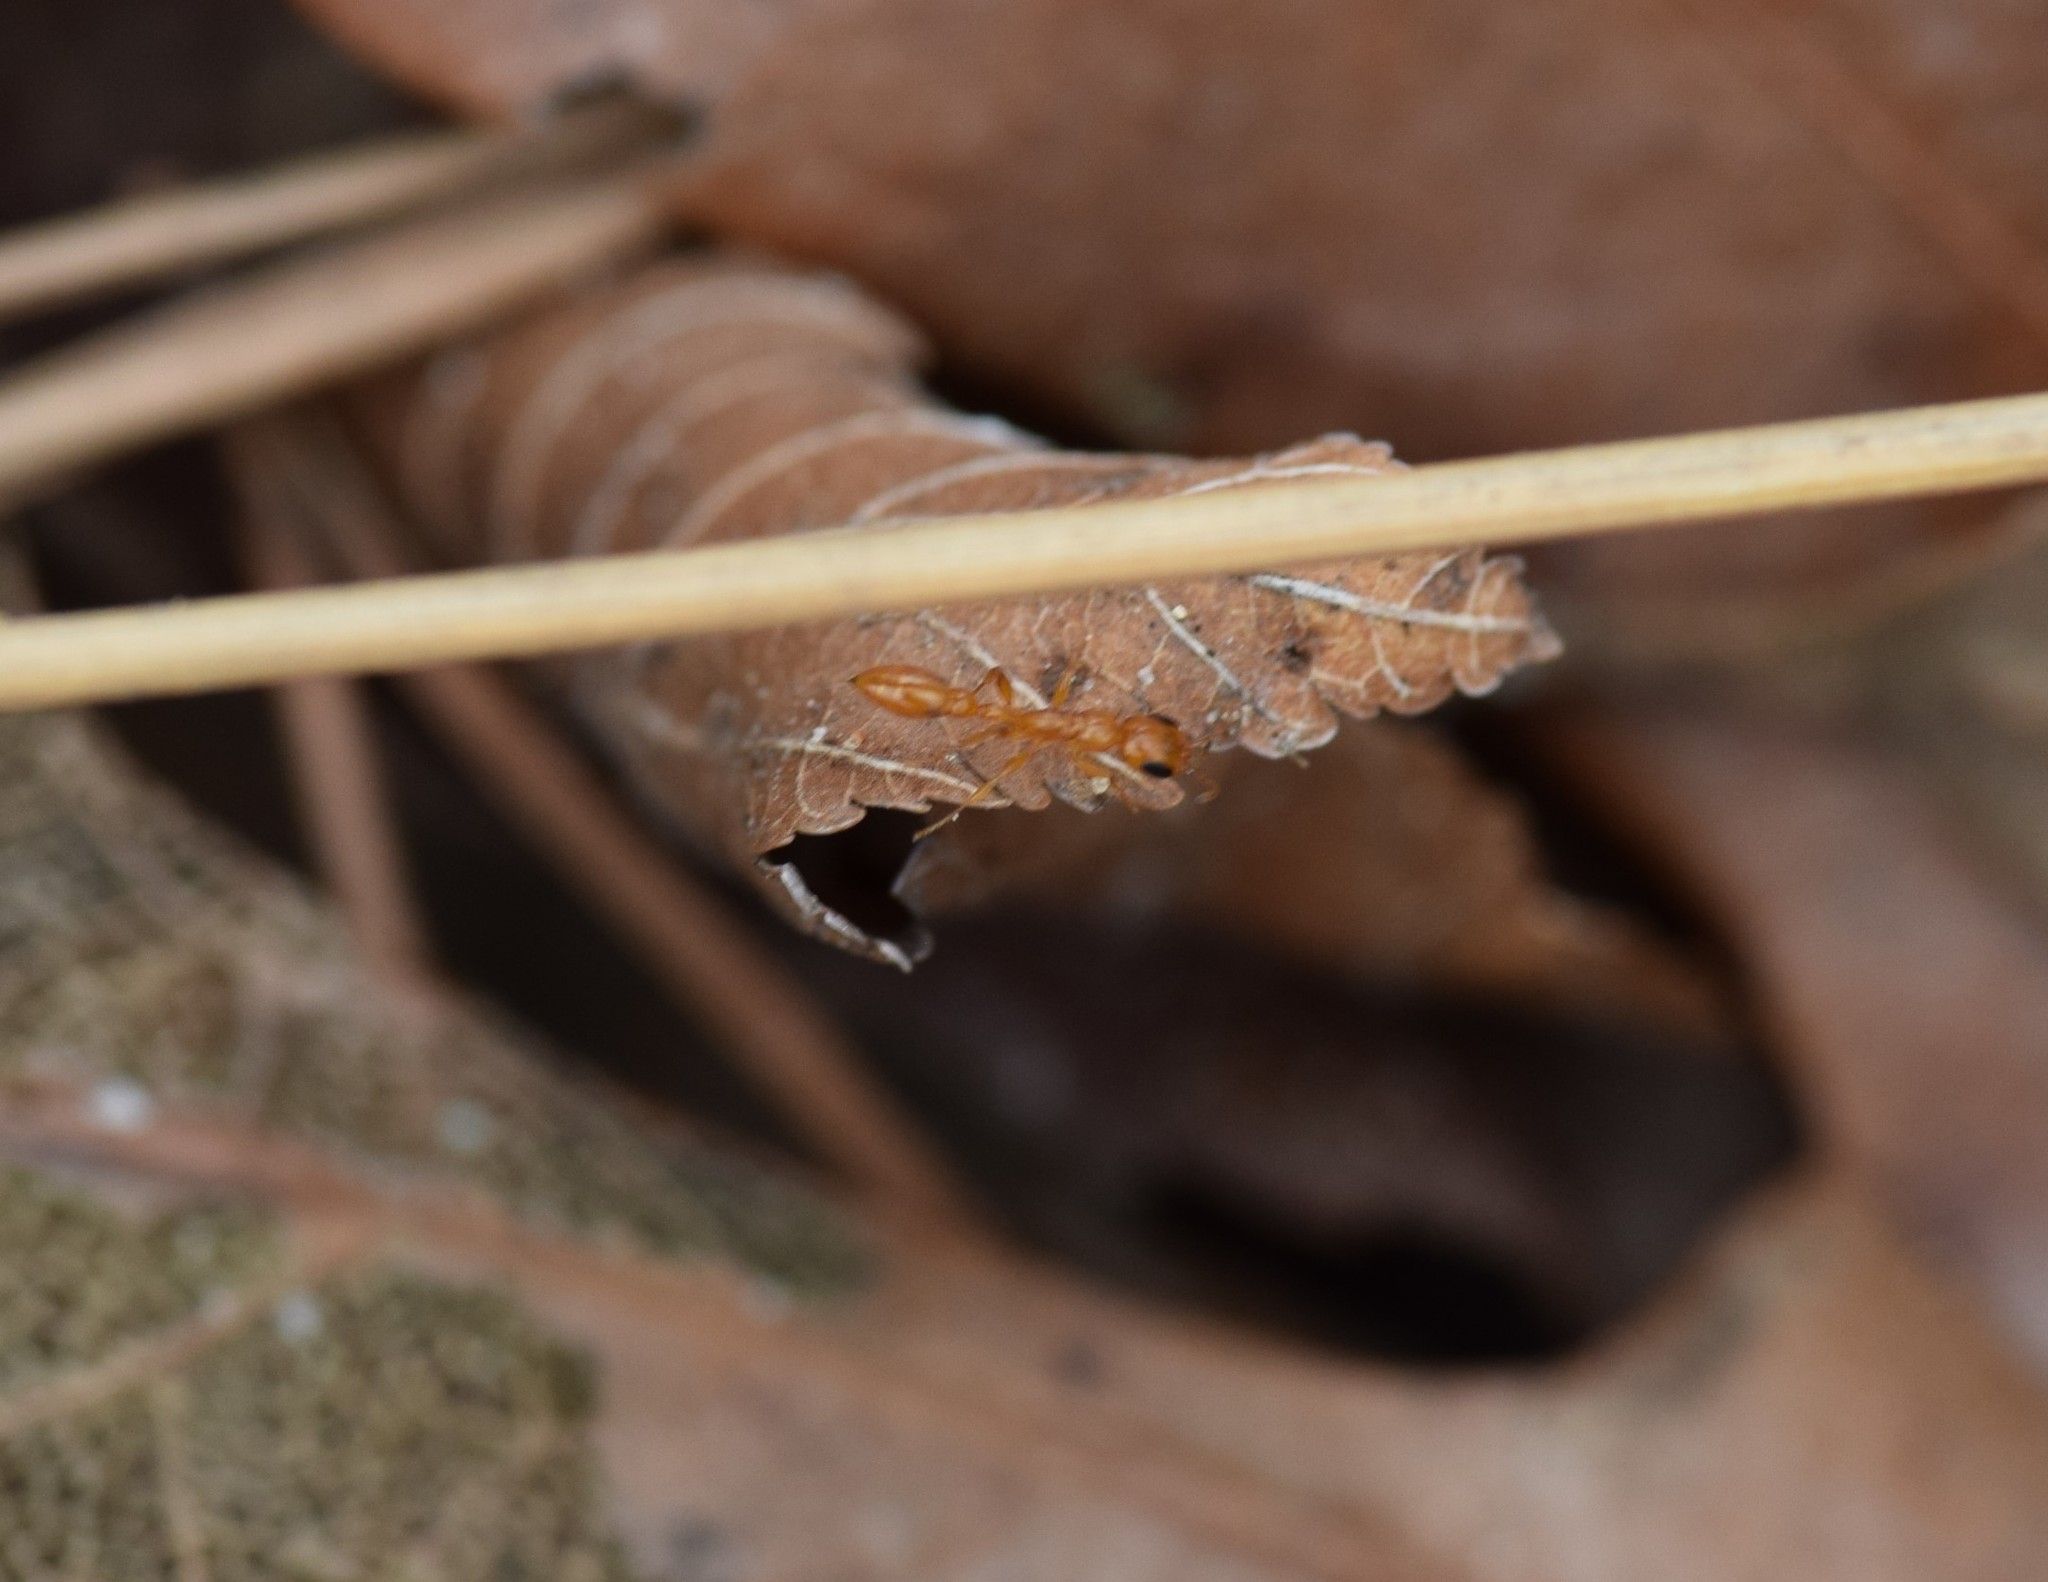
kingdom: Animalia
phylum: Arthropoda
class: Insecta
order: Hymenoptera
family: Formicidae
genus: Pseudomyrmex
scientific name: Pseudomyrmex pallidus
